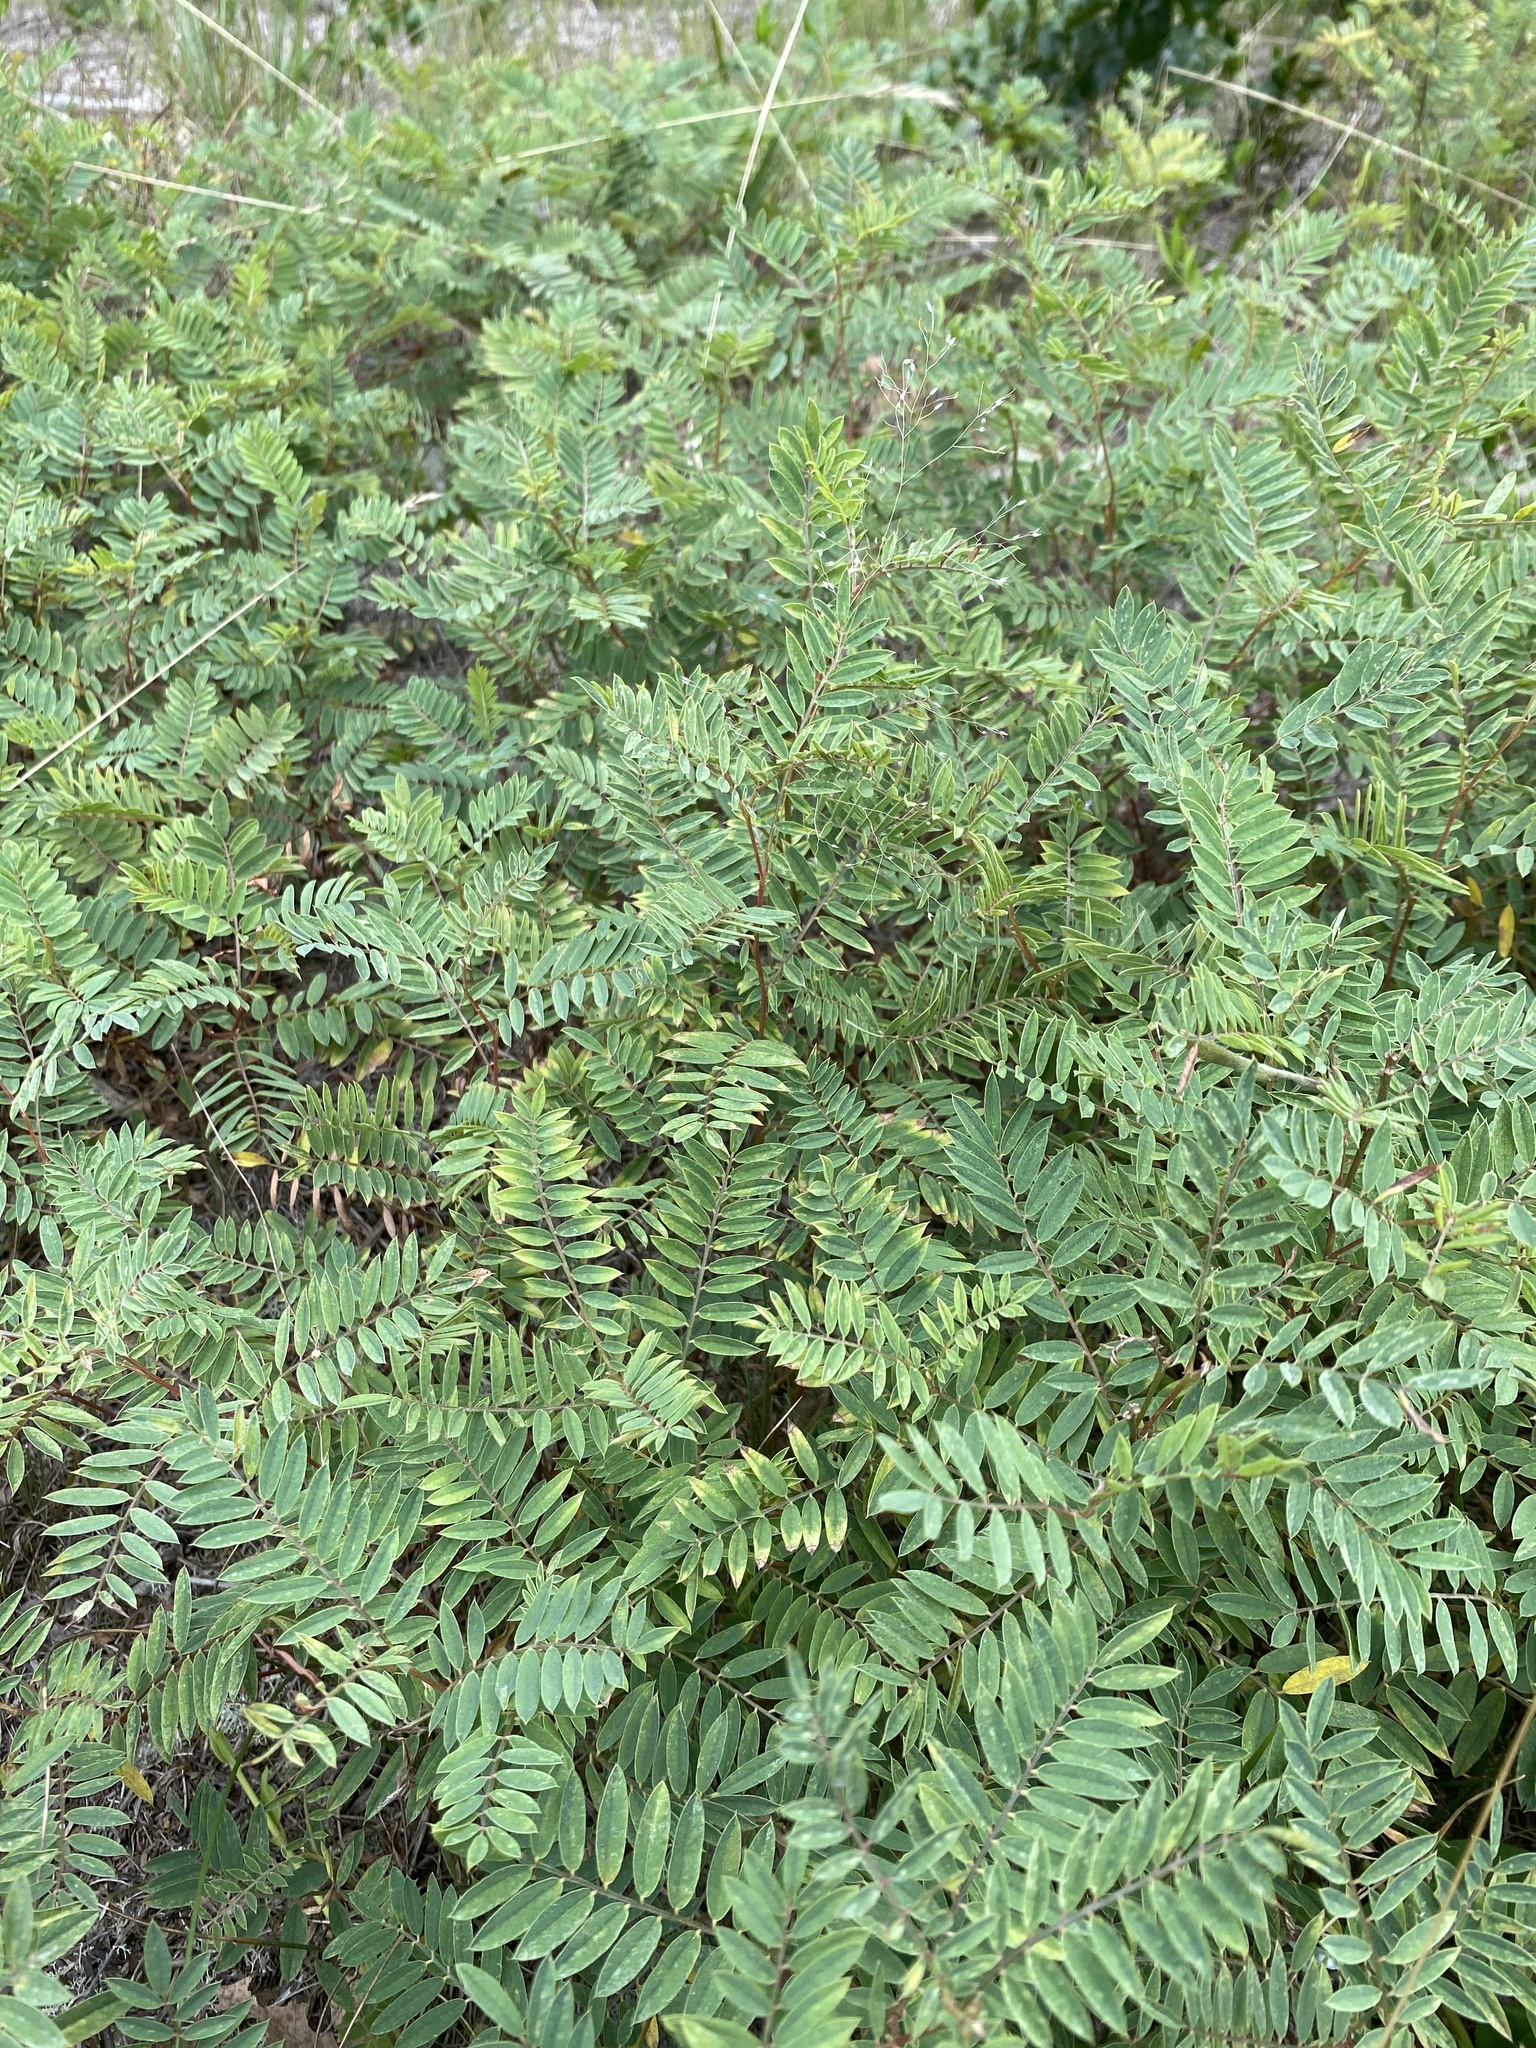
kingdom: Plantae
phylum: Tracheophyta
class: Magnoliopsida
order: Fabales
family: Fabaceae
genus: Tephrosia
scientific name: Tephrosia virginiana
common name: Rabbit-pea
